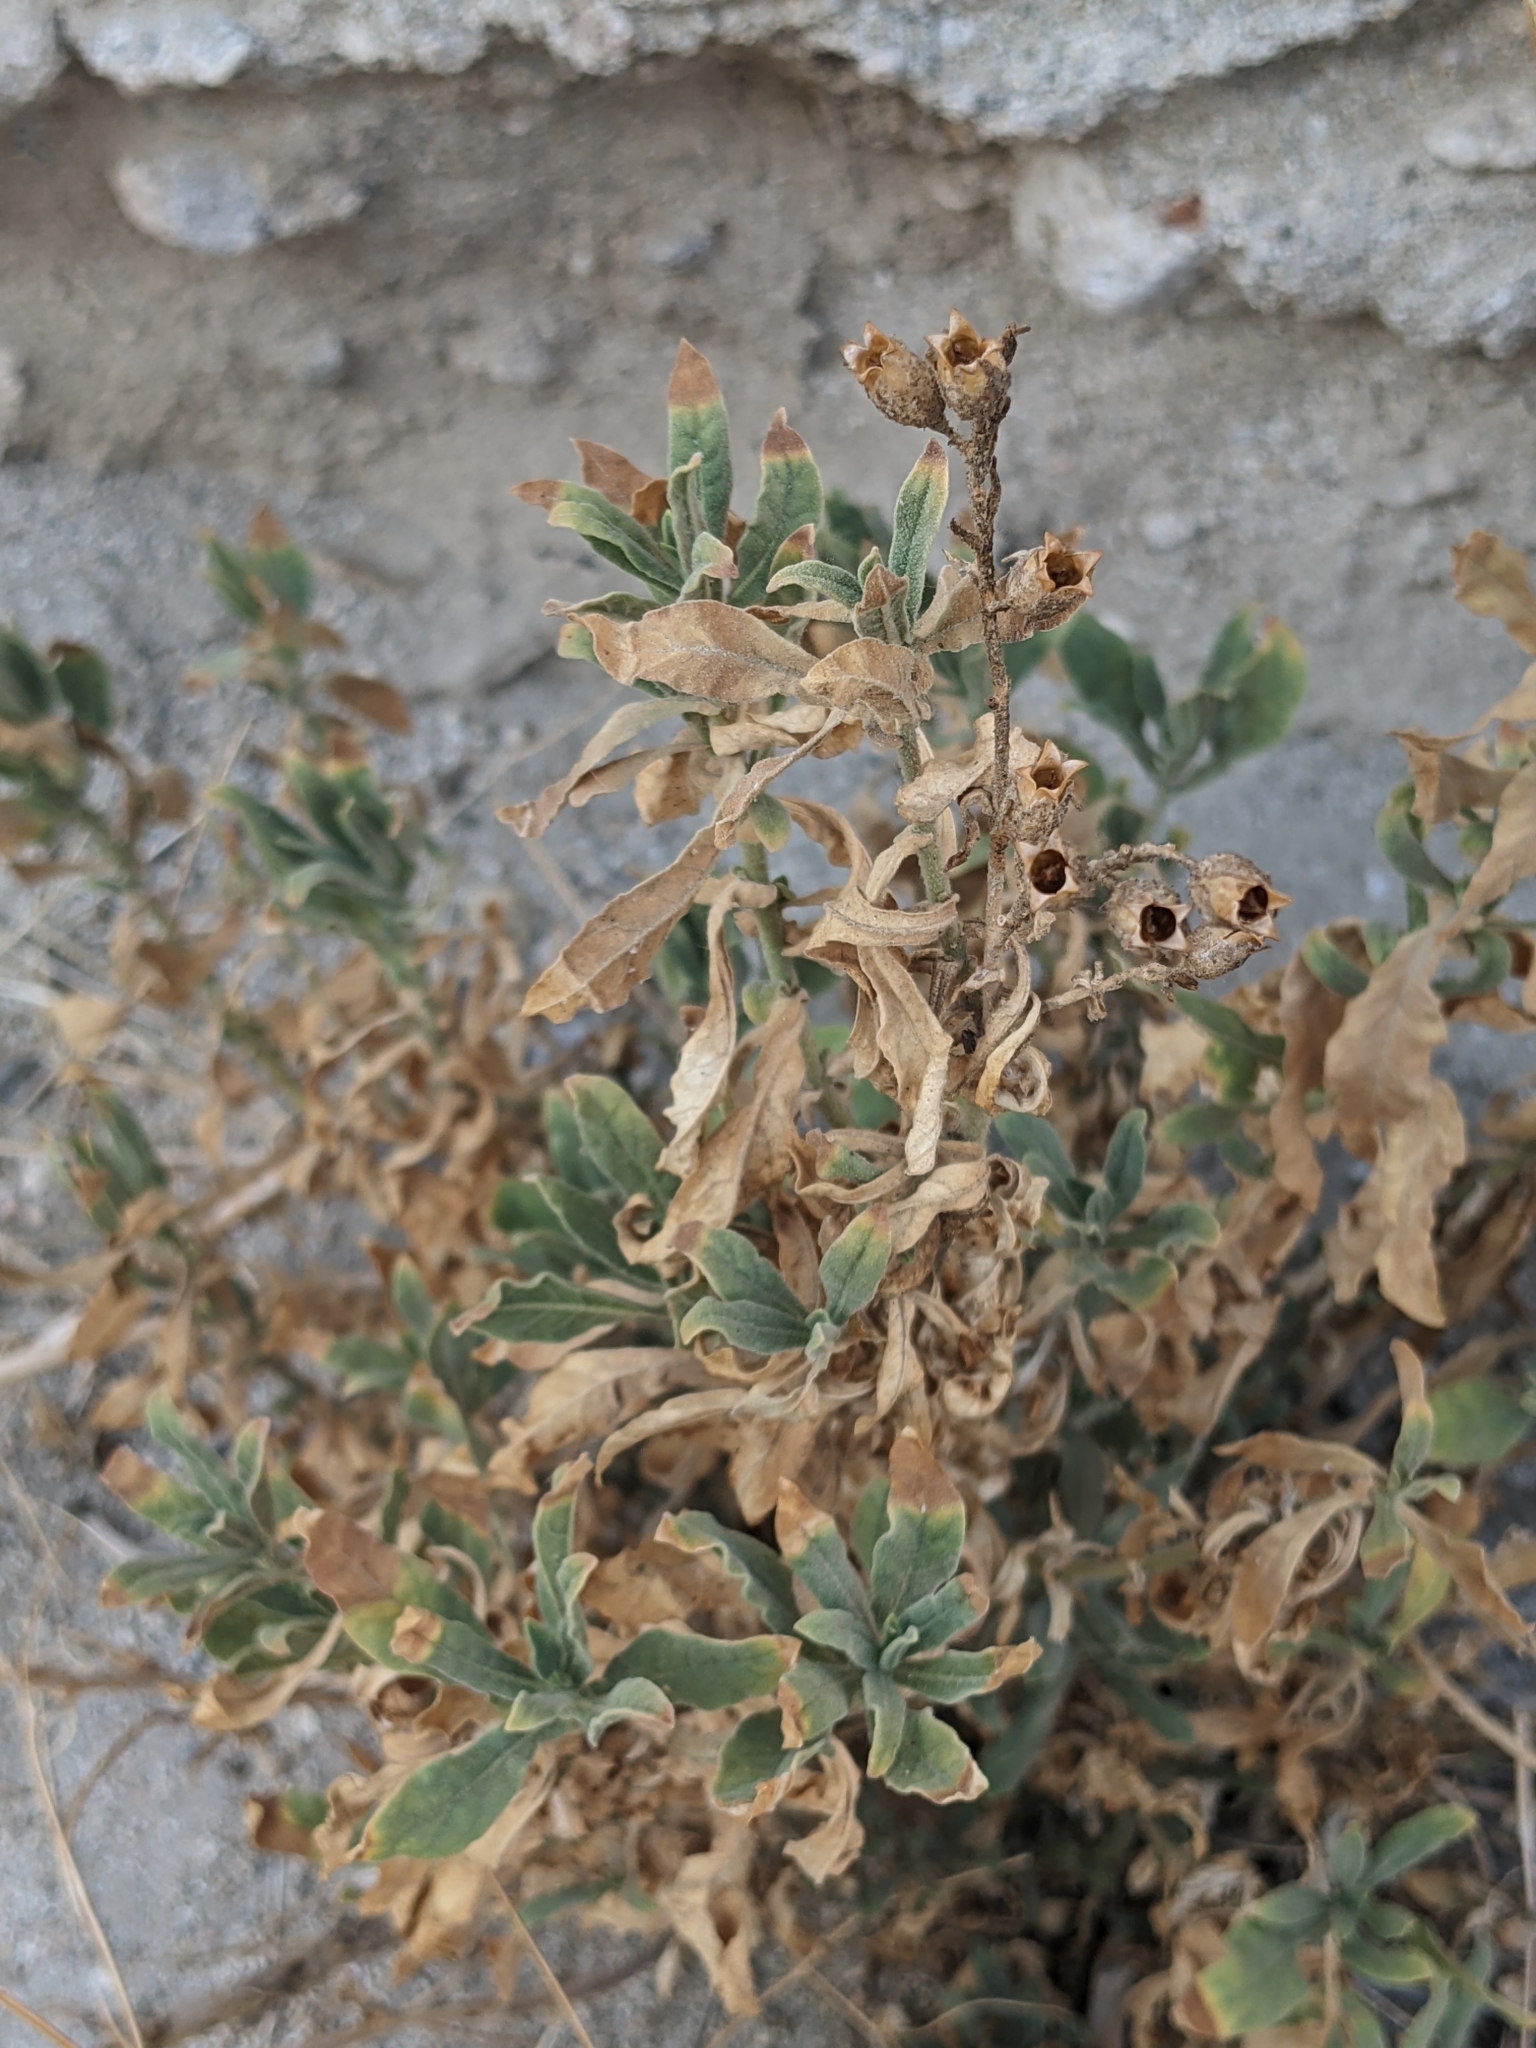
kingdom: Plantae
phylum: Tracheophyta
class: Magnoliopsida
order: Solanales
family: Solanaceae
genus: Nicotiana
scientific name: Nicotiana obtusifolia
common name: Desert tobacco
